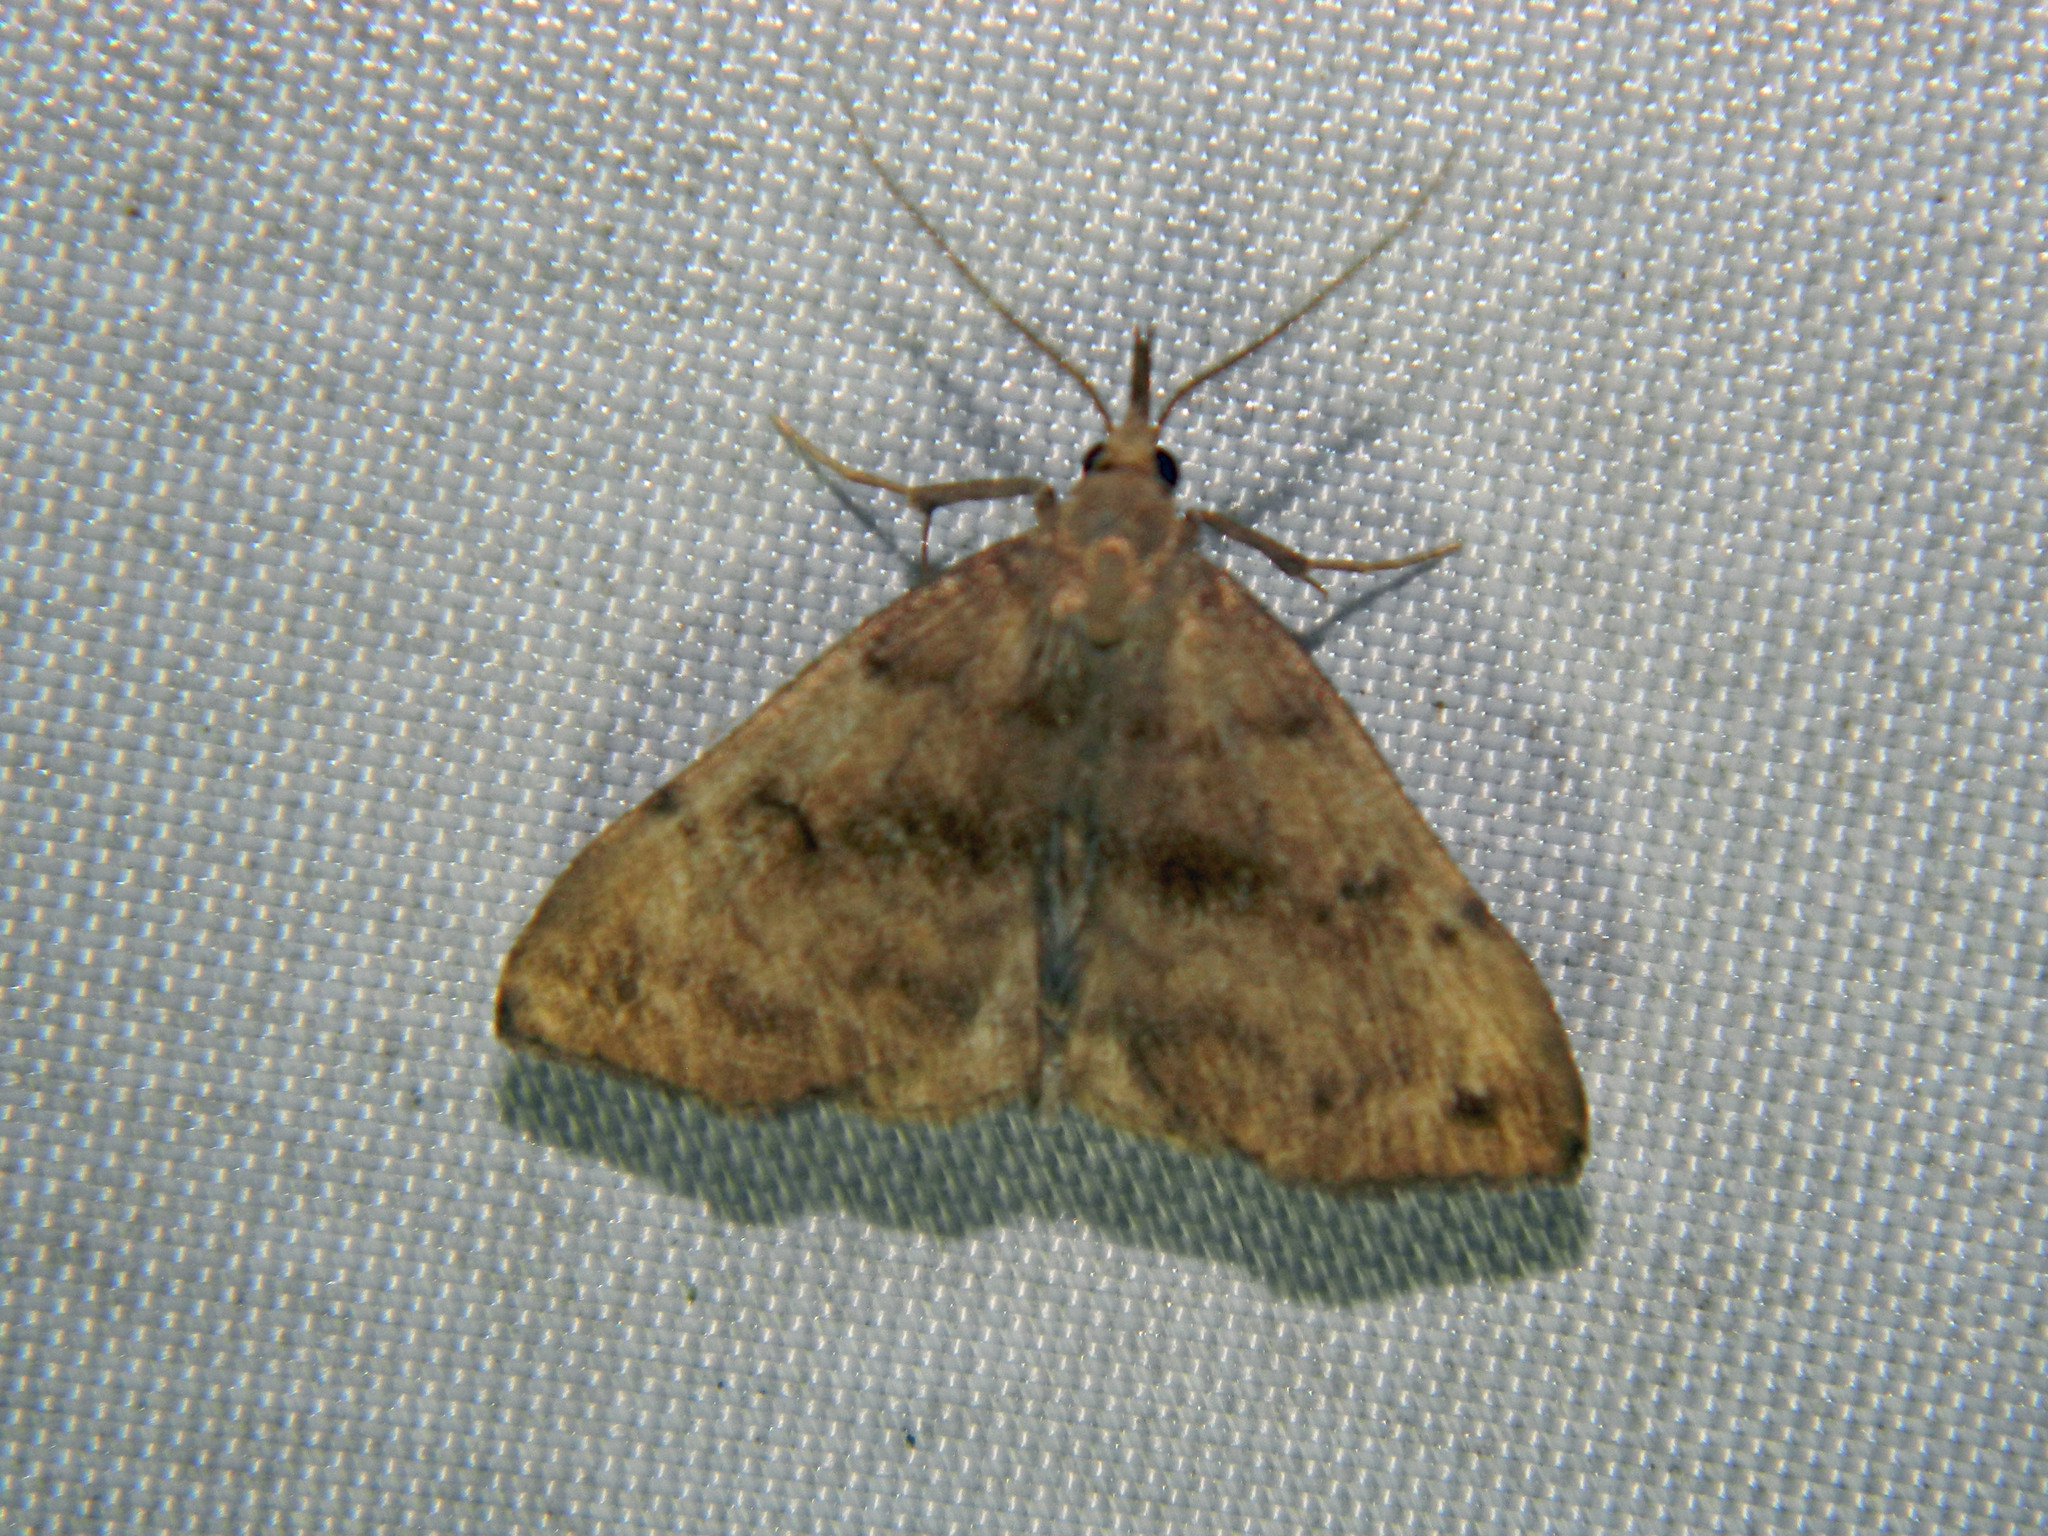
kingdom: Animalia
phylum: Arthropoda
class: Insecta
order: Lepidoptera
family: Erebidae
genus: Phalaenostola
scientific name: Phalaenostola eumelusalis
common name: Dark phalaenostola moth
